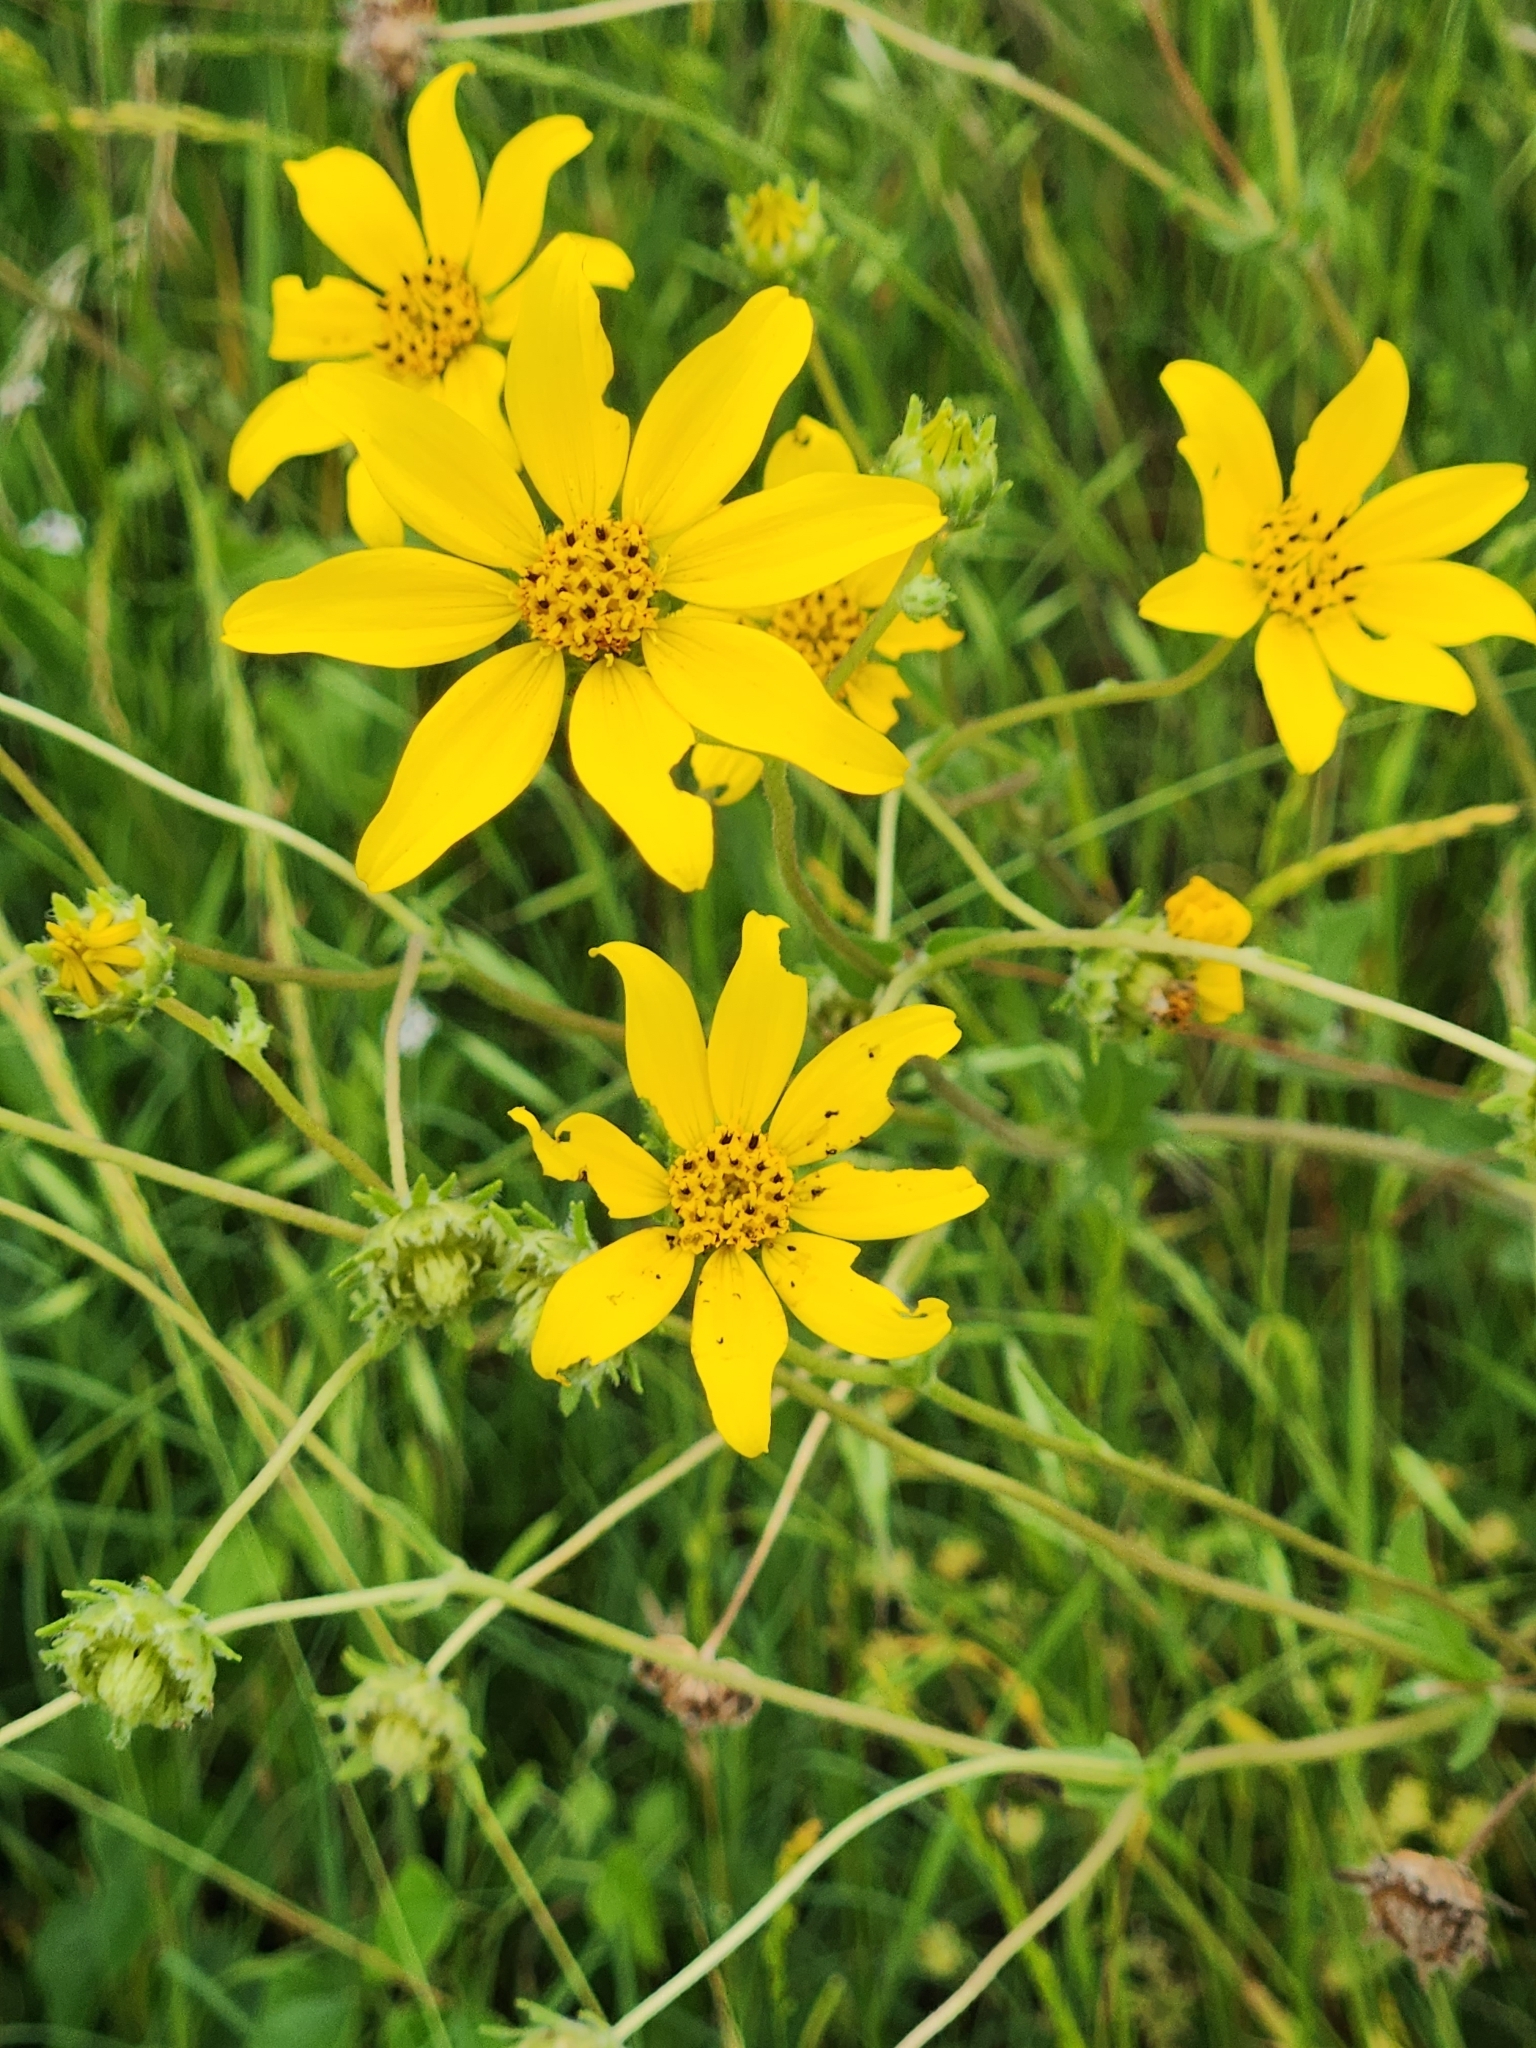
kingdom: Plantae
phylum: Tracheophyta
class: Magnoliopsida
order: Asterales
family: Asteraceae
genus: Engelmannia
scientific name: Engelmannia peristenia
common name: Engelmann's daisy
